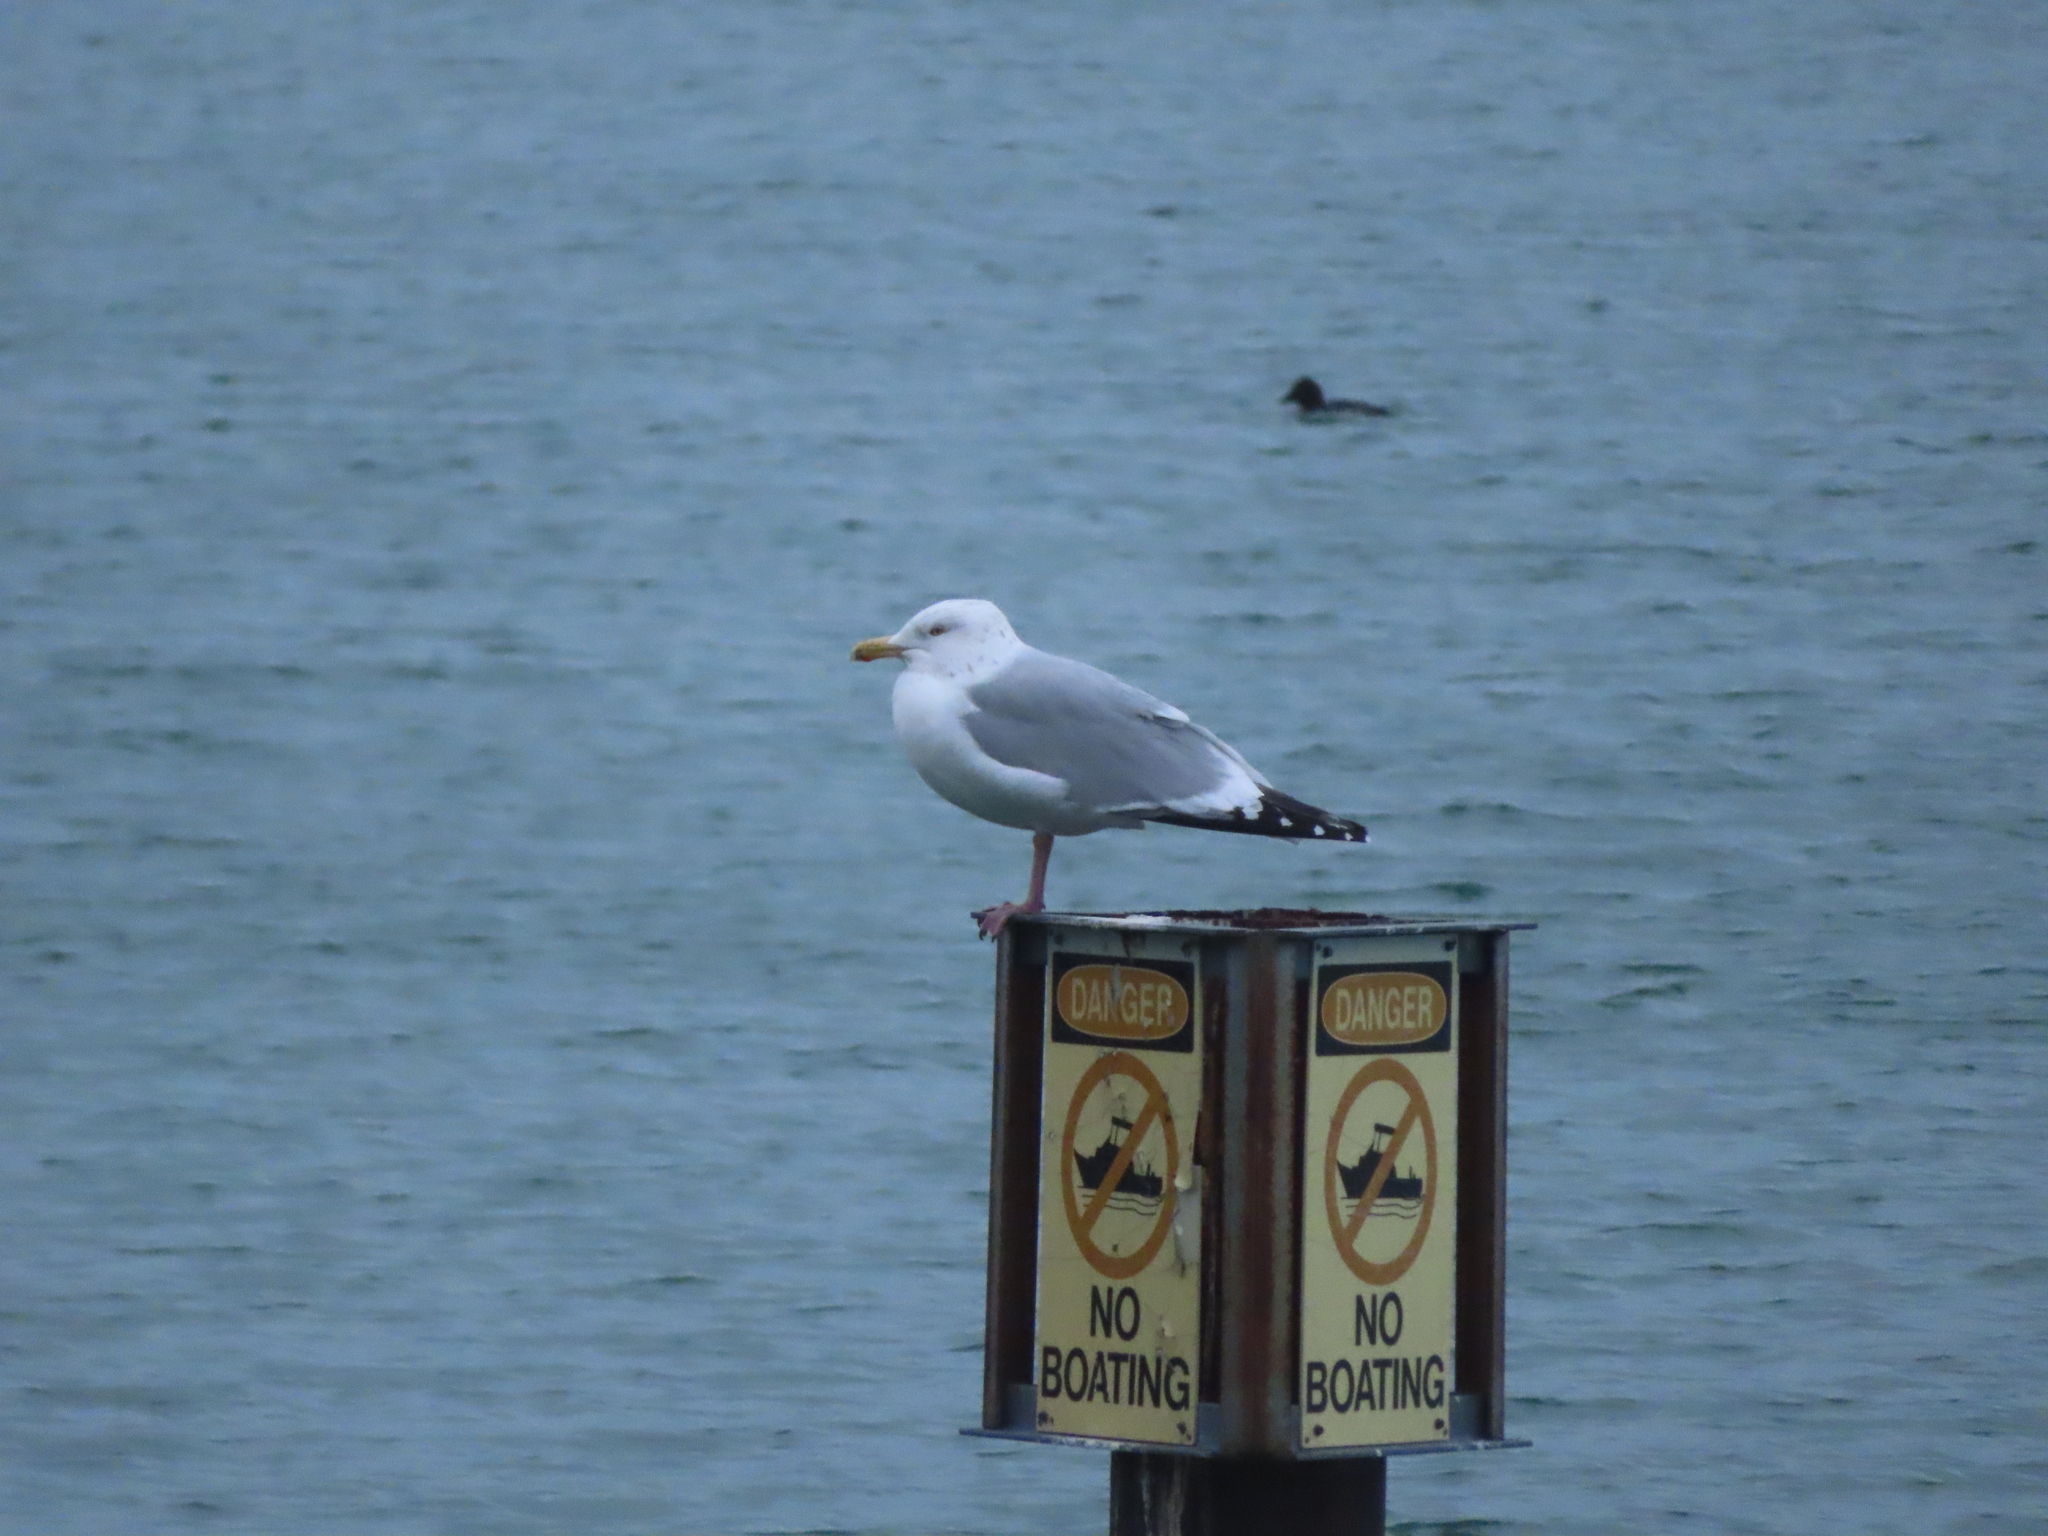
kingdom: Animalia
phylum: Chordata
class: Aves
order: Charadriiformes
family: Laridae
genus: Larus
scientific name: Larus argentatus
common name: Herring gull
